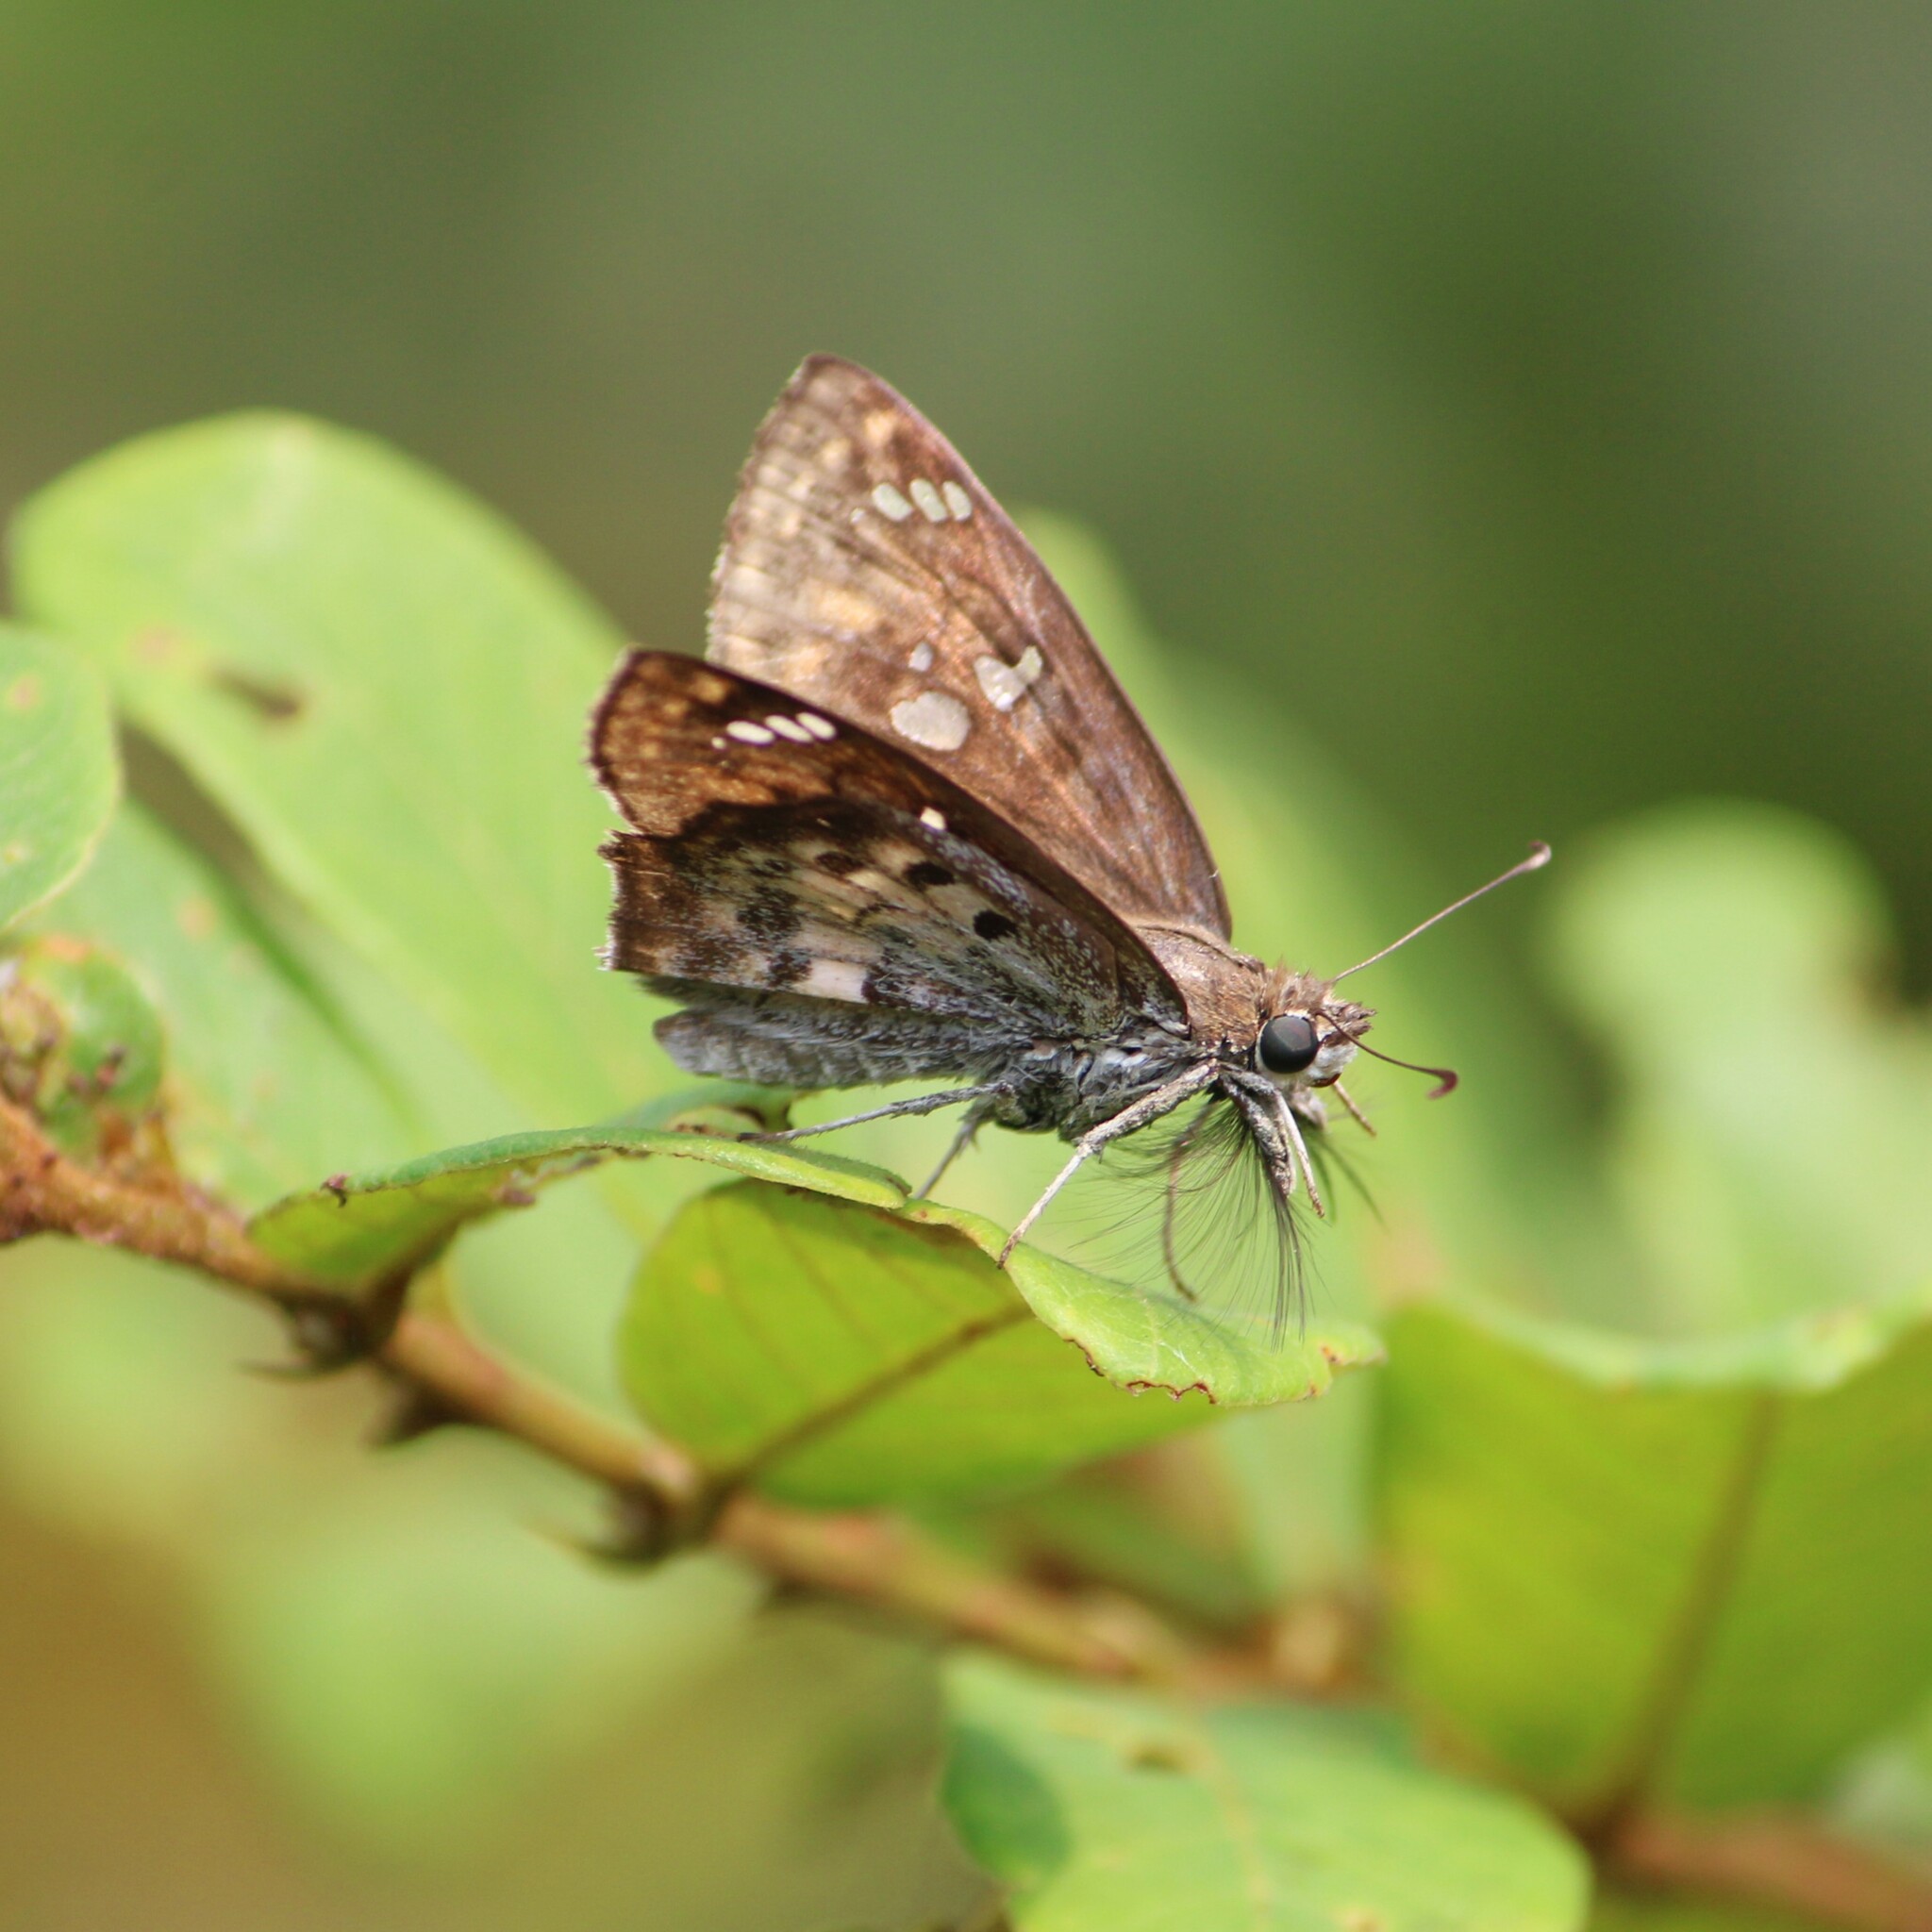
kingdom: Animalia
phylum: Arthropoda
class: Insecta
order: Lepidoptera
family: Hesperiidae
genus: Caprona
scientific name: Caprona ransonnettii
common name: Golden angle
